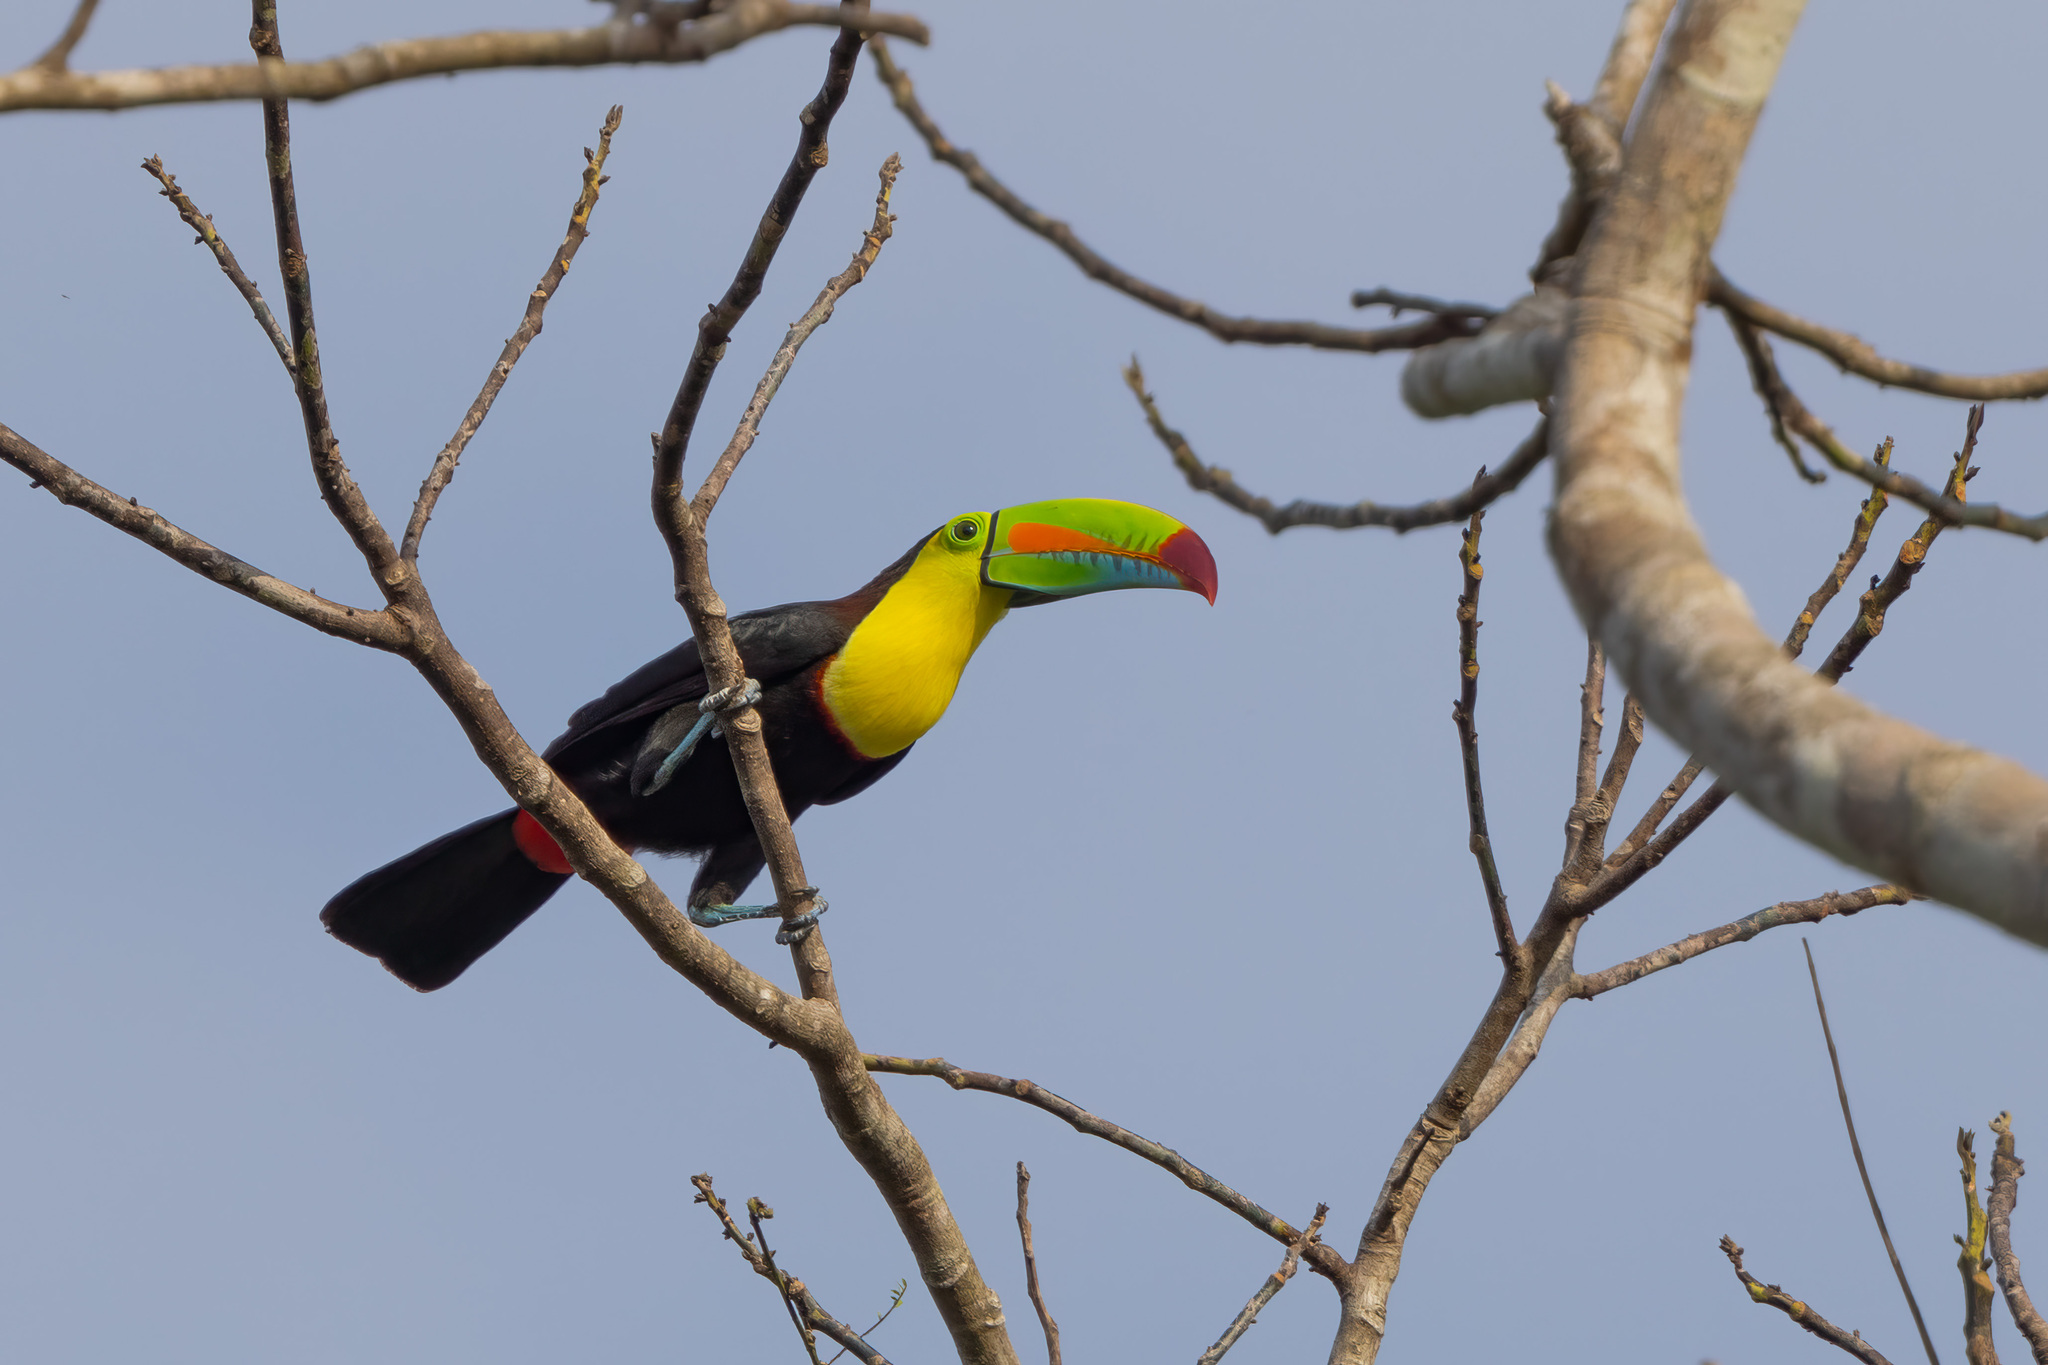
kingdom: Animalia
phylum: Chordata
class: Aves
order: Piciformes
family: Ramphastidae
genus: Ramphastos
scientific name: Ramphastos sulfuratus
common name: Keel-billed toucan
